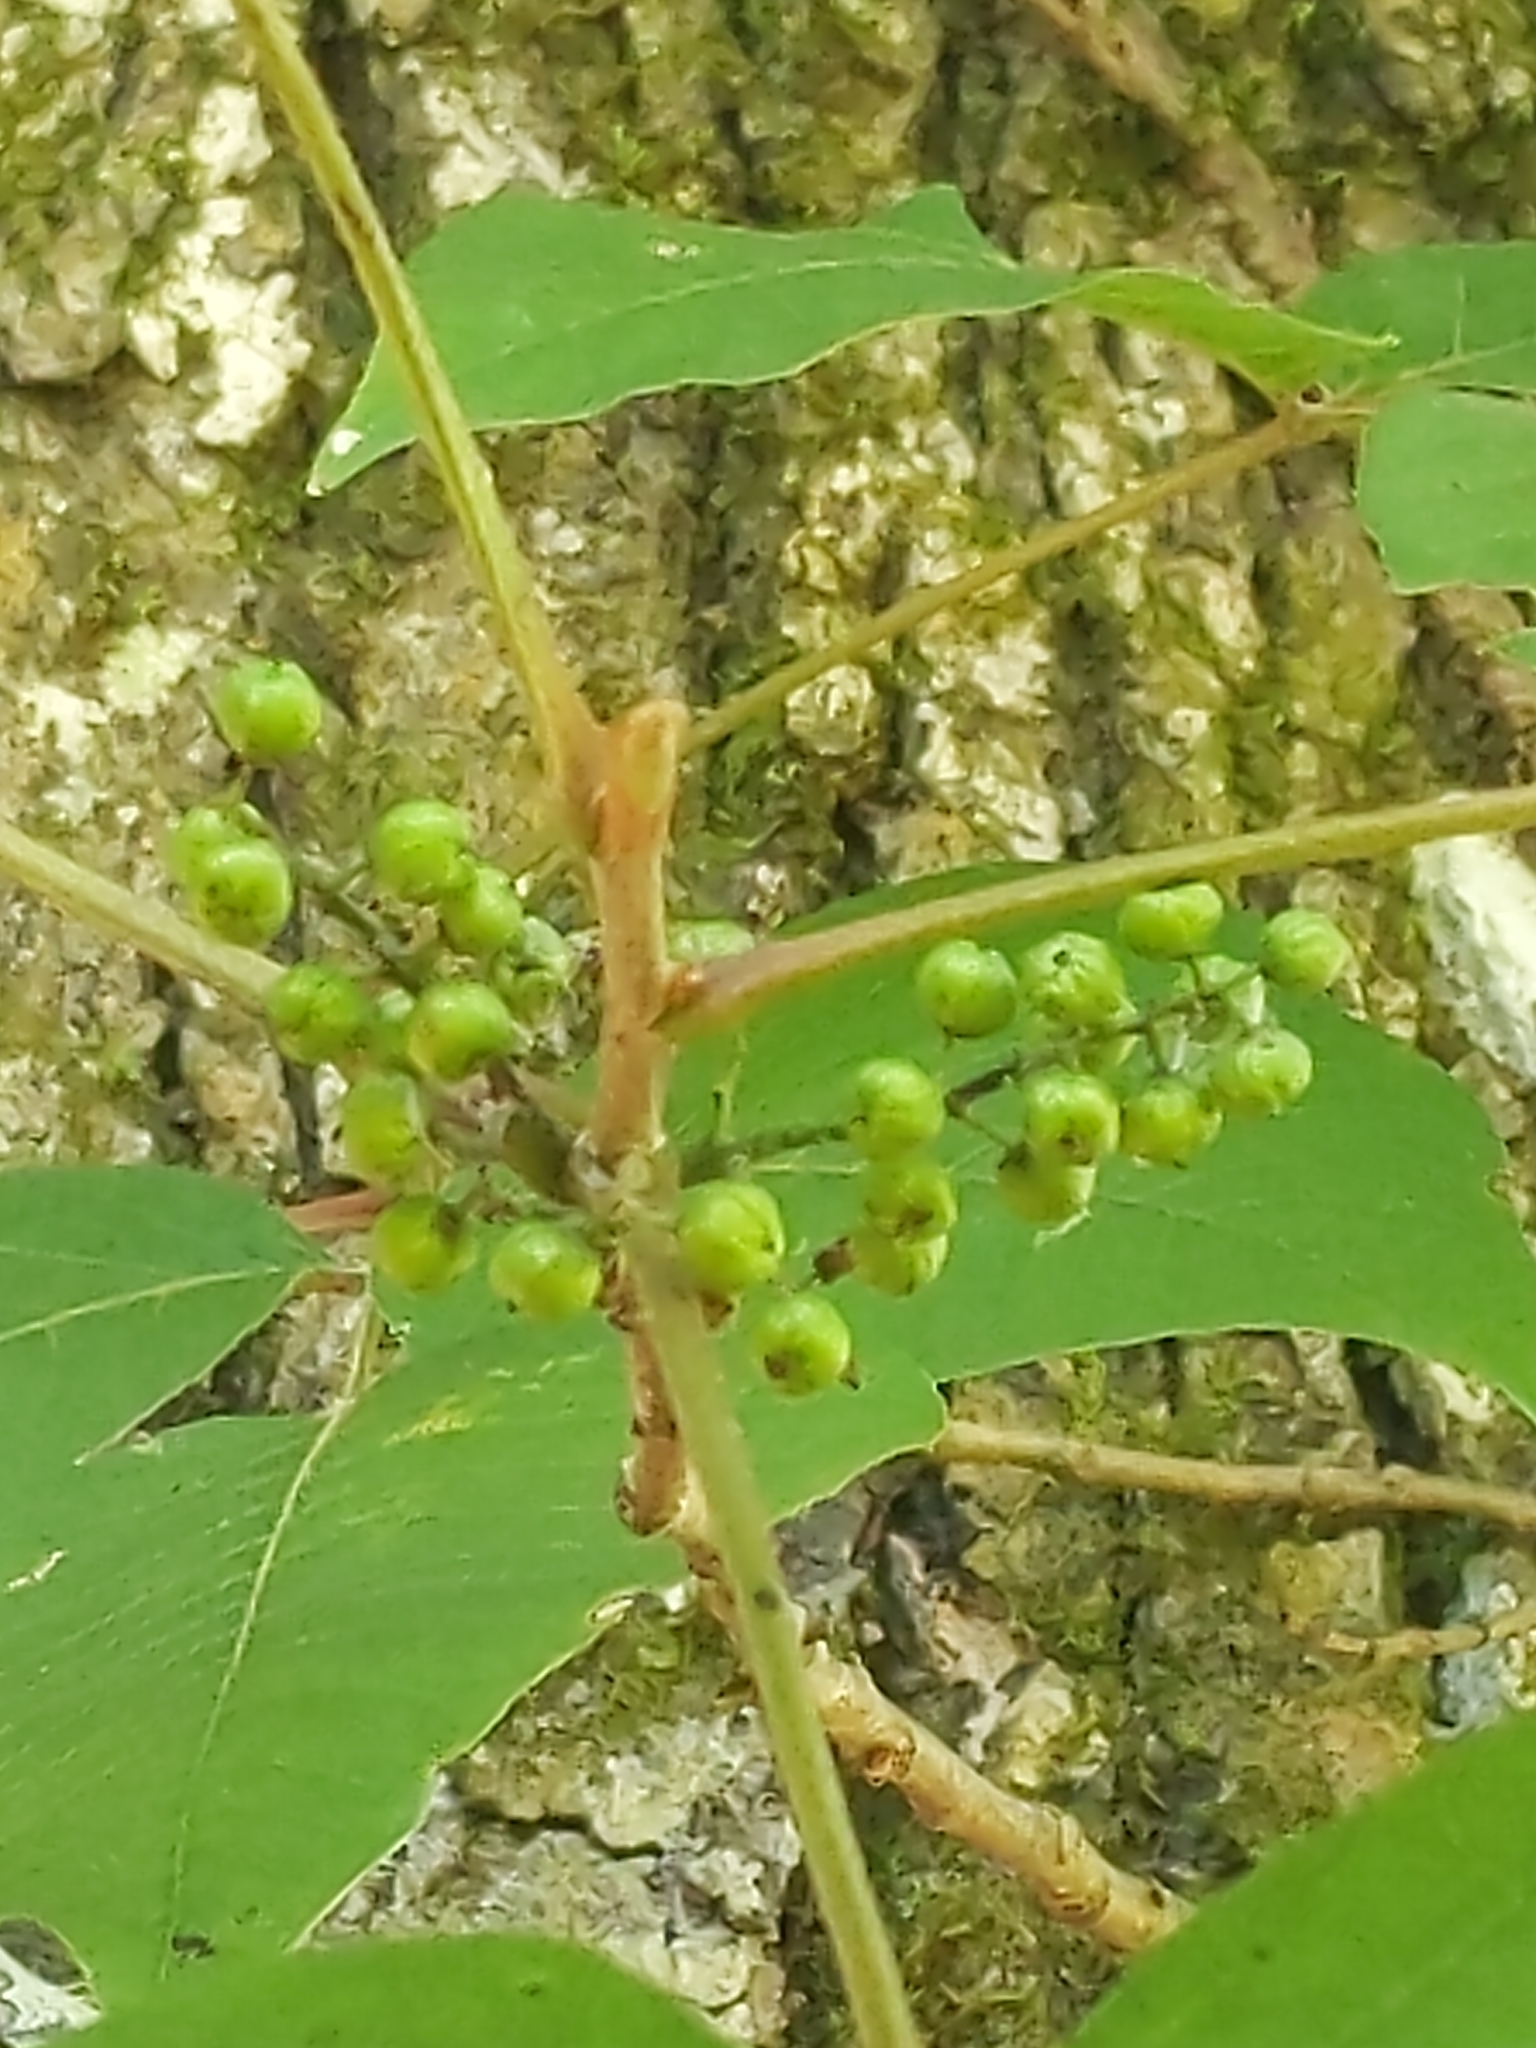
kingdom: Plantae
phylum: Tracheophyta
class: Magnoliopsida
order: Sapindales
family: Anacardiaceae
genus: Toxicodendron
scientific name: Toxicodendron radicans
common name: Poison ivy
